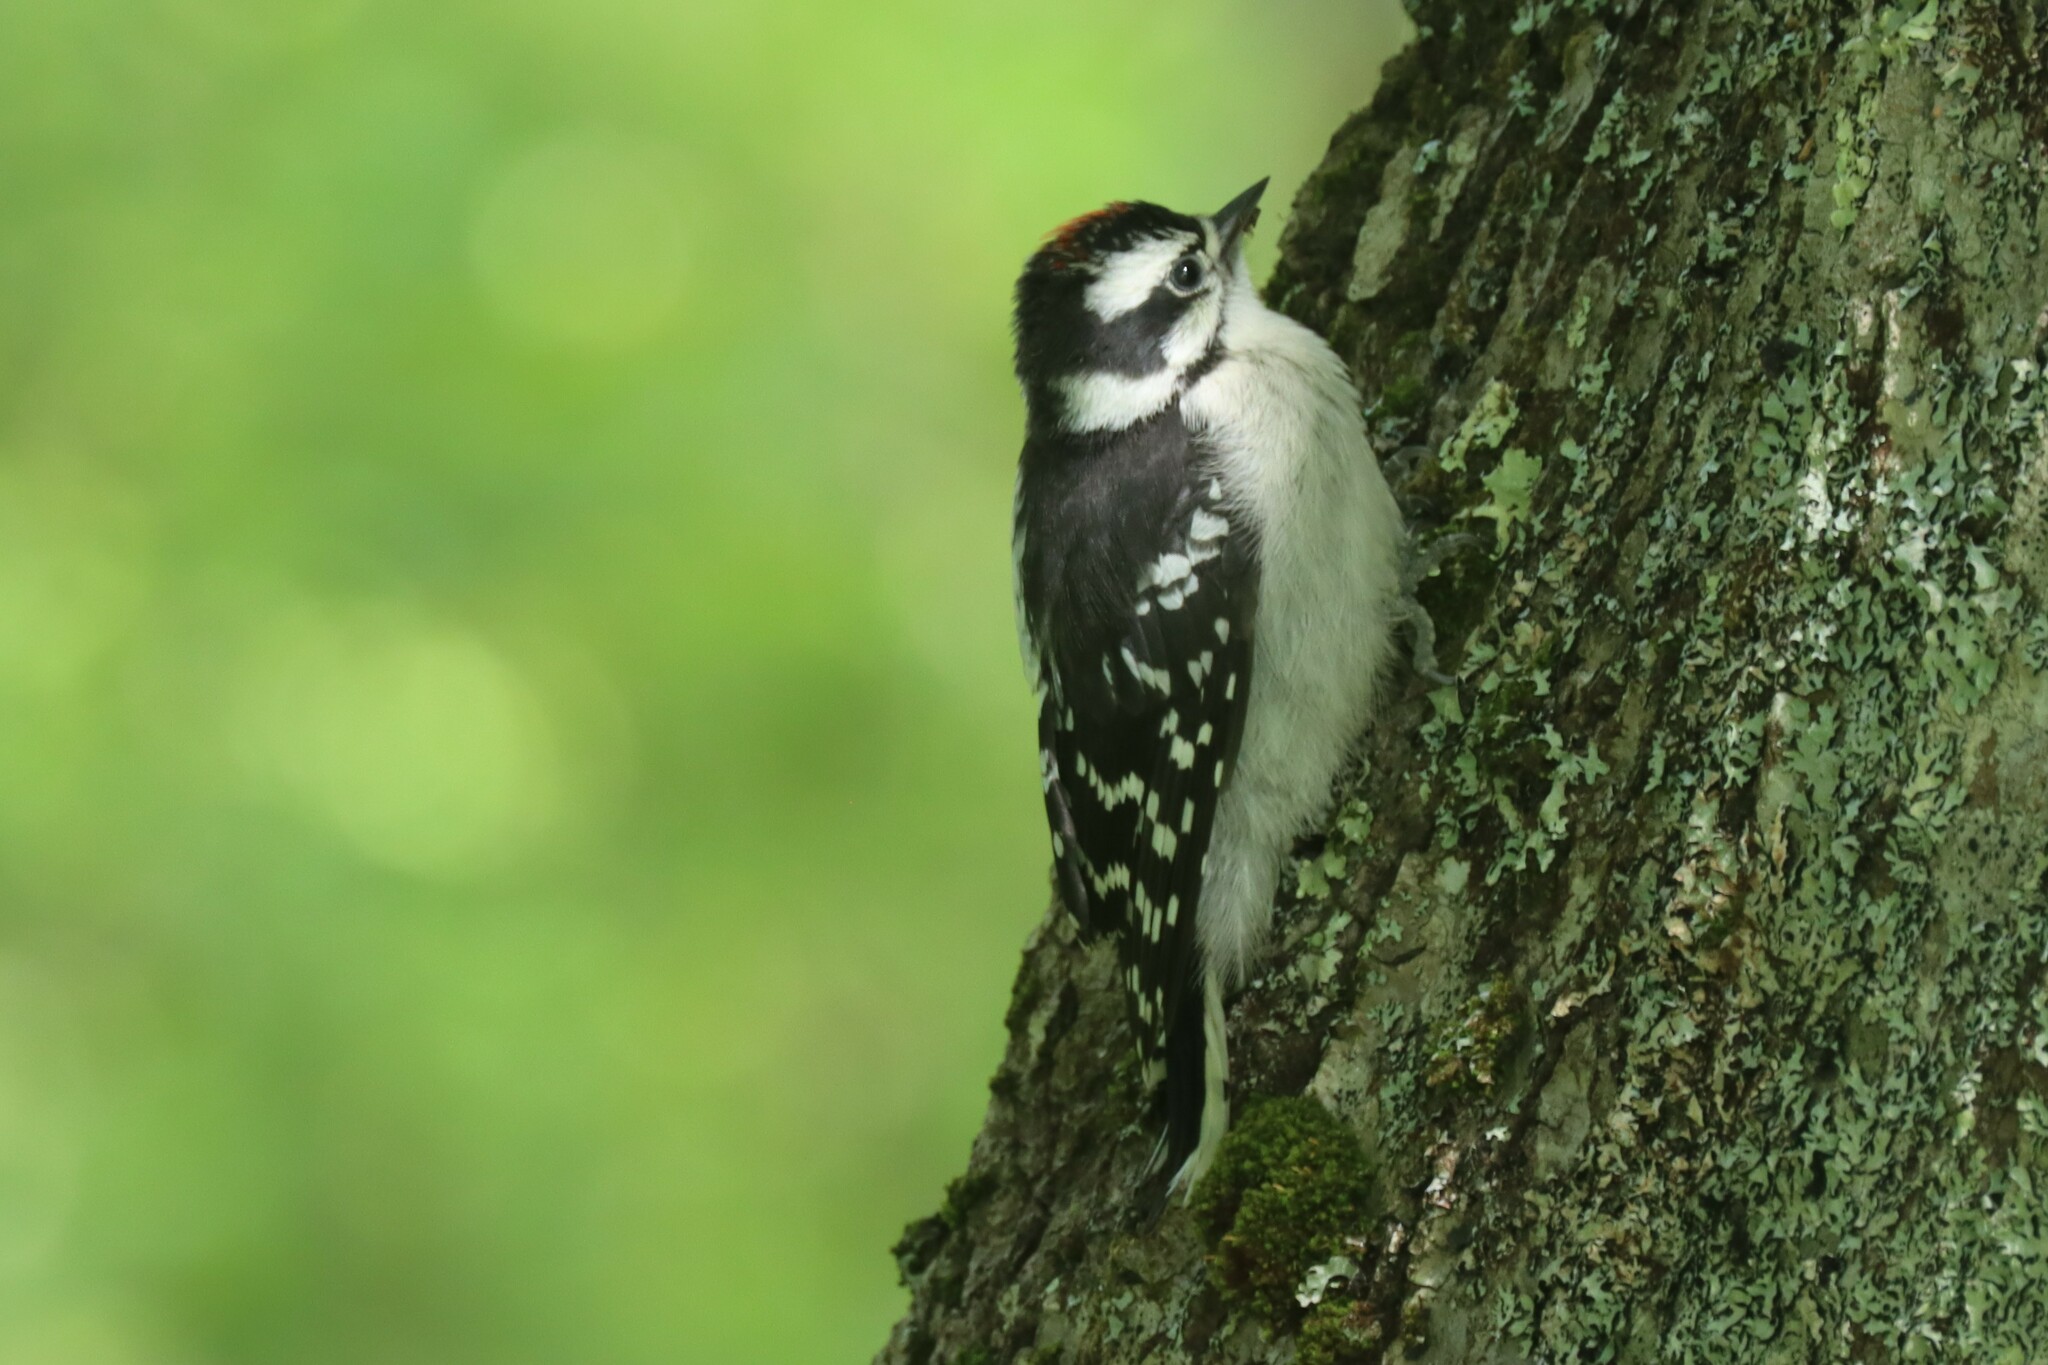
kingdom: Animalia
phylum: Chordata
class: Aves
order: Piciformes
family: Picidae
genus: Dryobates
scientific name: Dryobates pubescens
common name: Downy woodpecker
